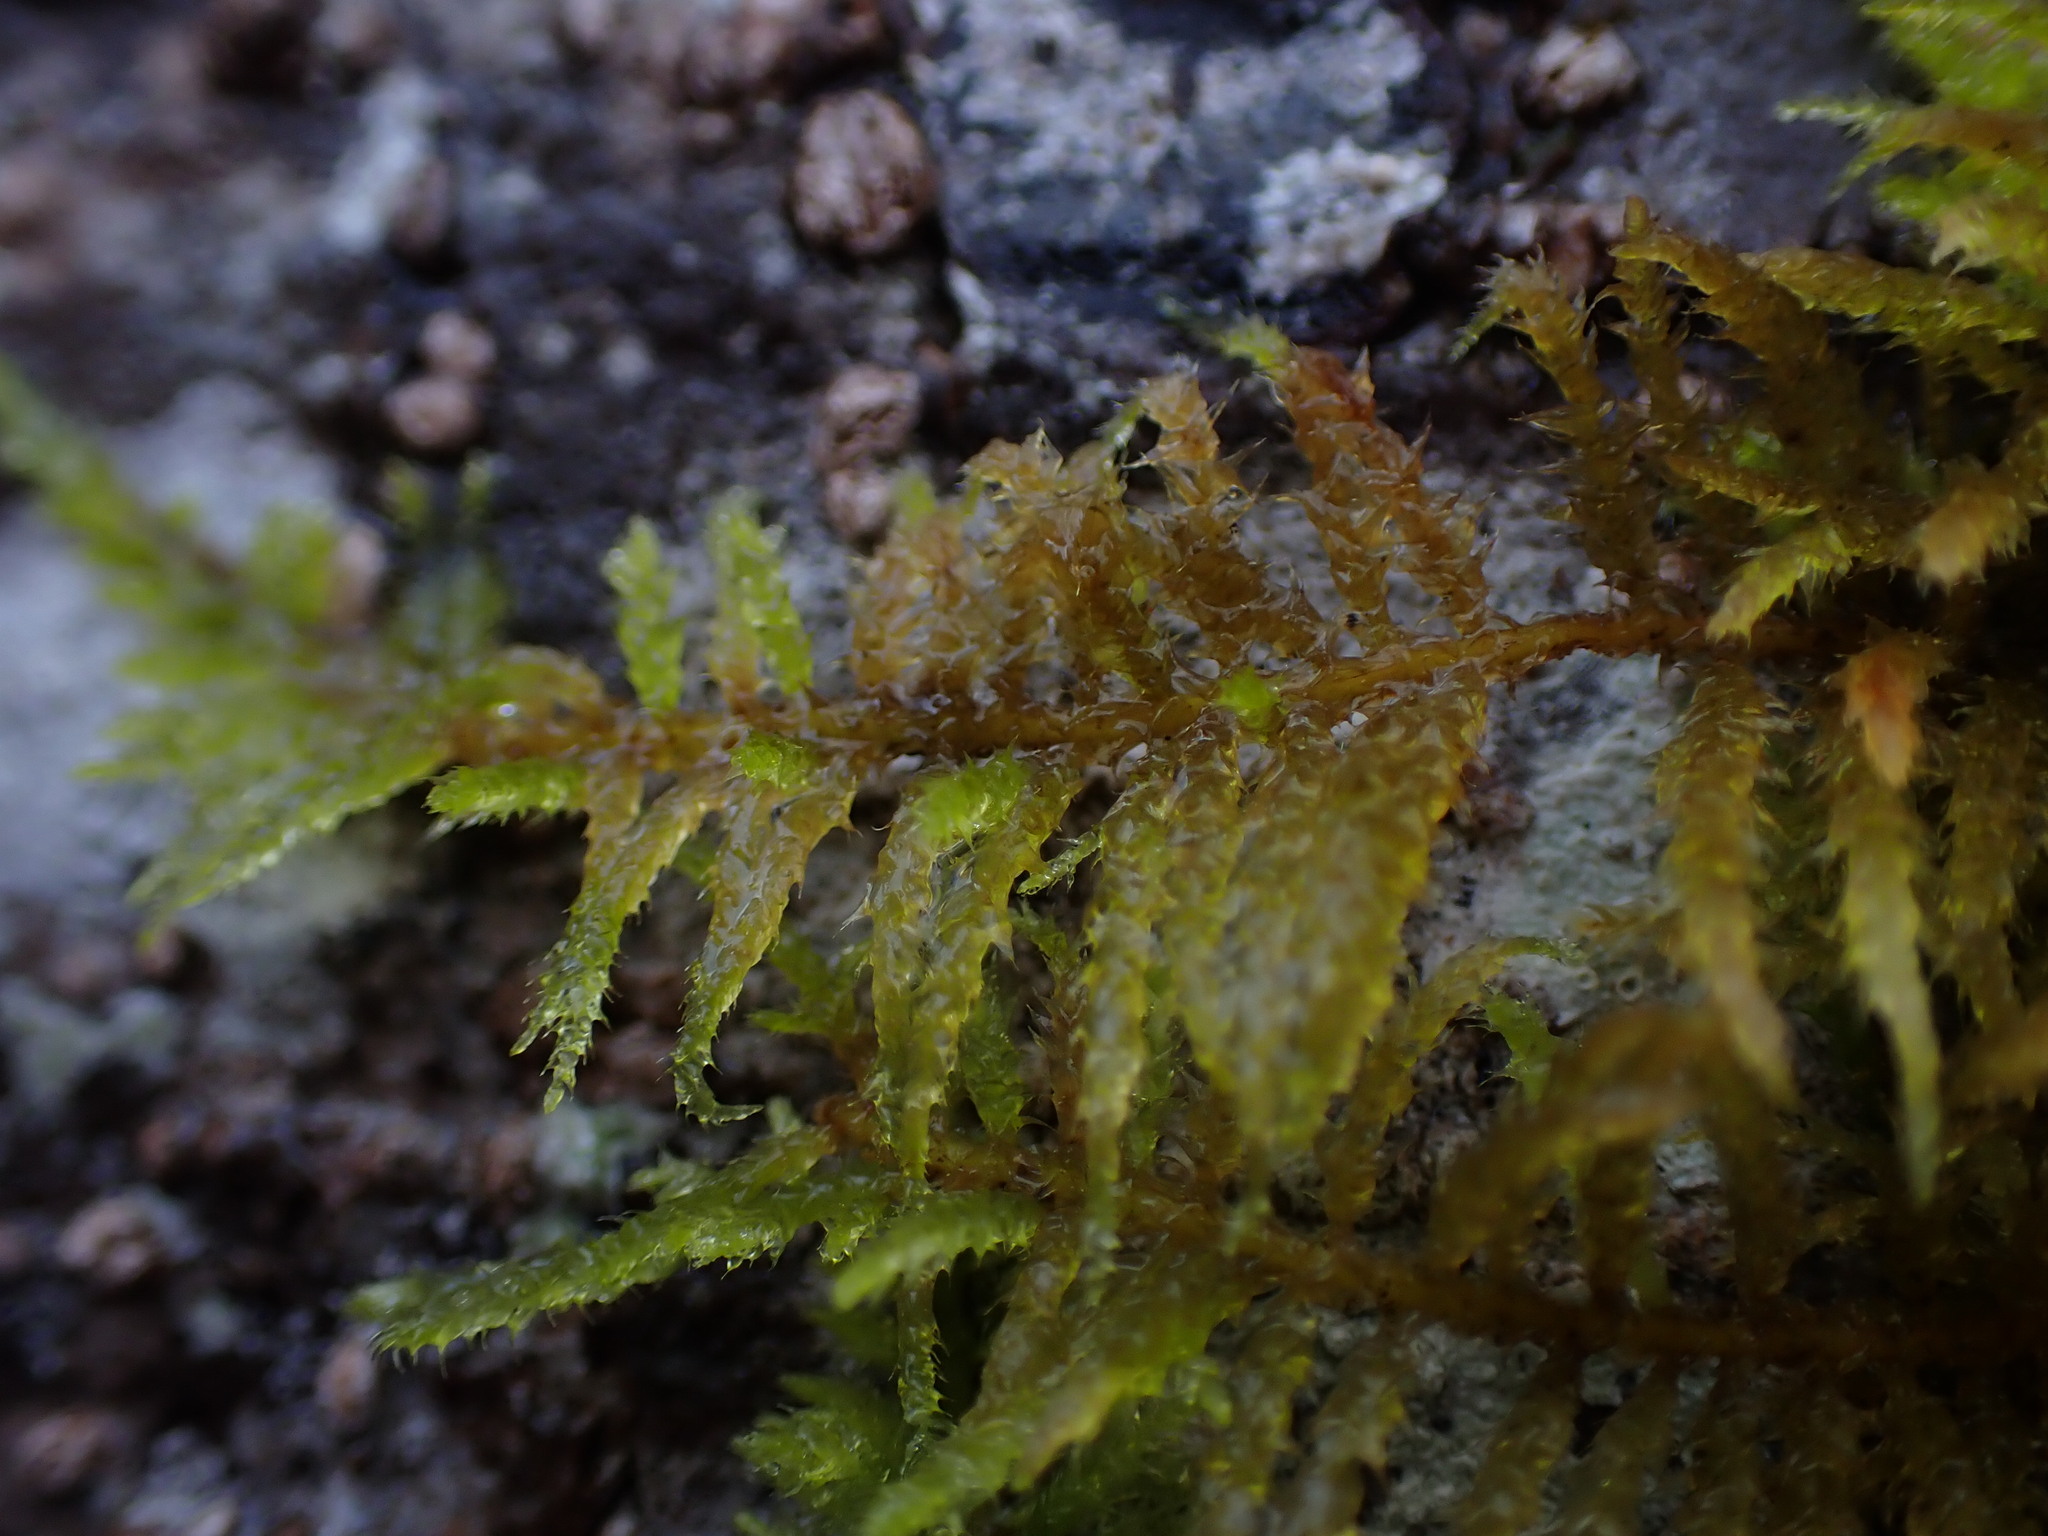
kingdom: Plantae
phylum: Bryophyta
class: Bryopsida
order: Hypnales
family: Brachytheciaceae
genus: Kindbergia
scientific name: Kindbergia oregana
